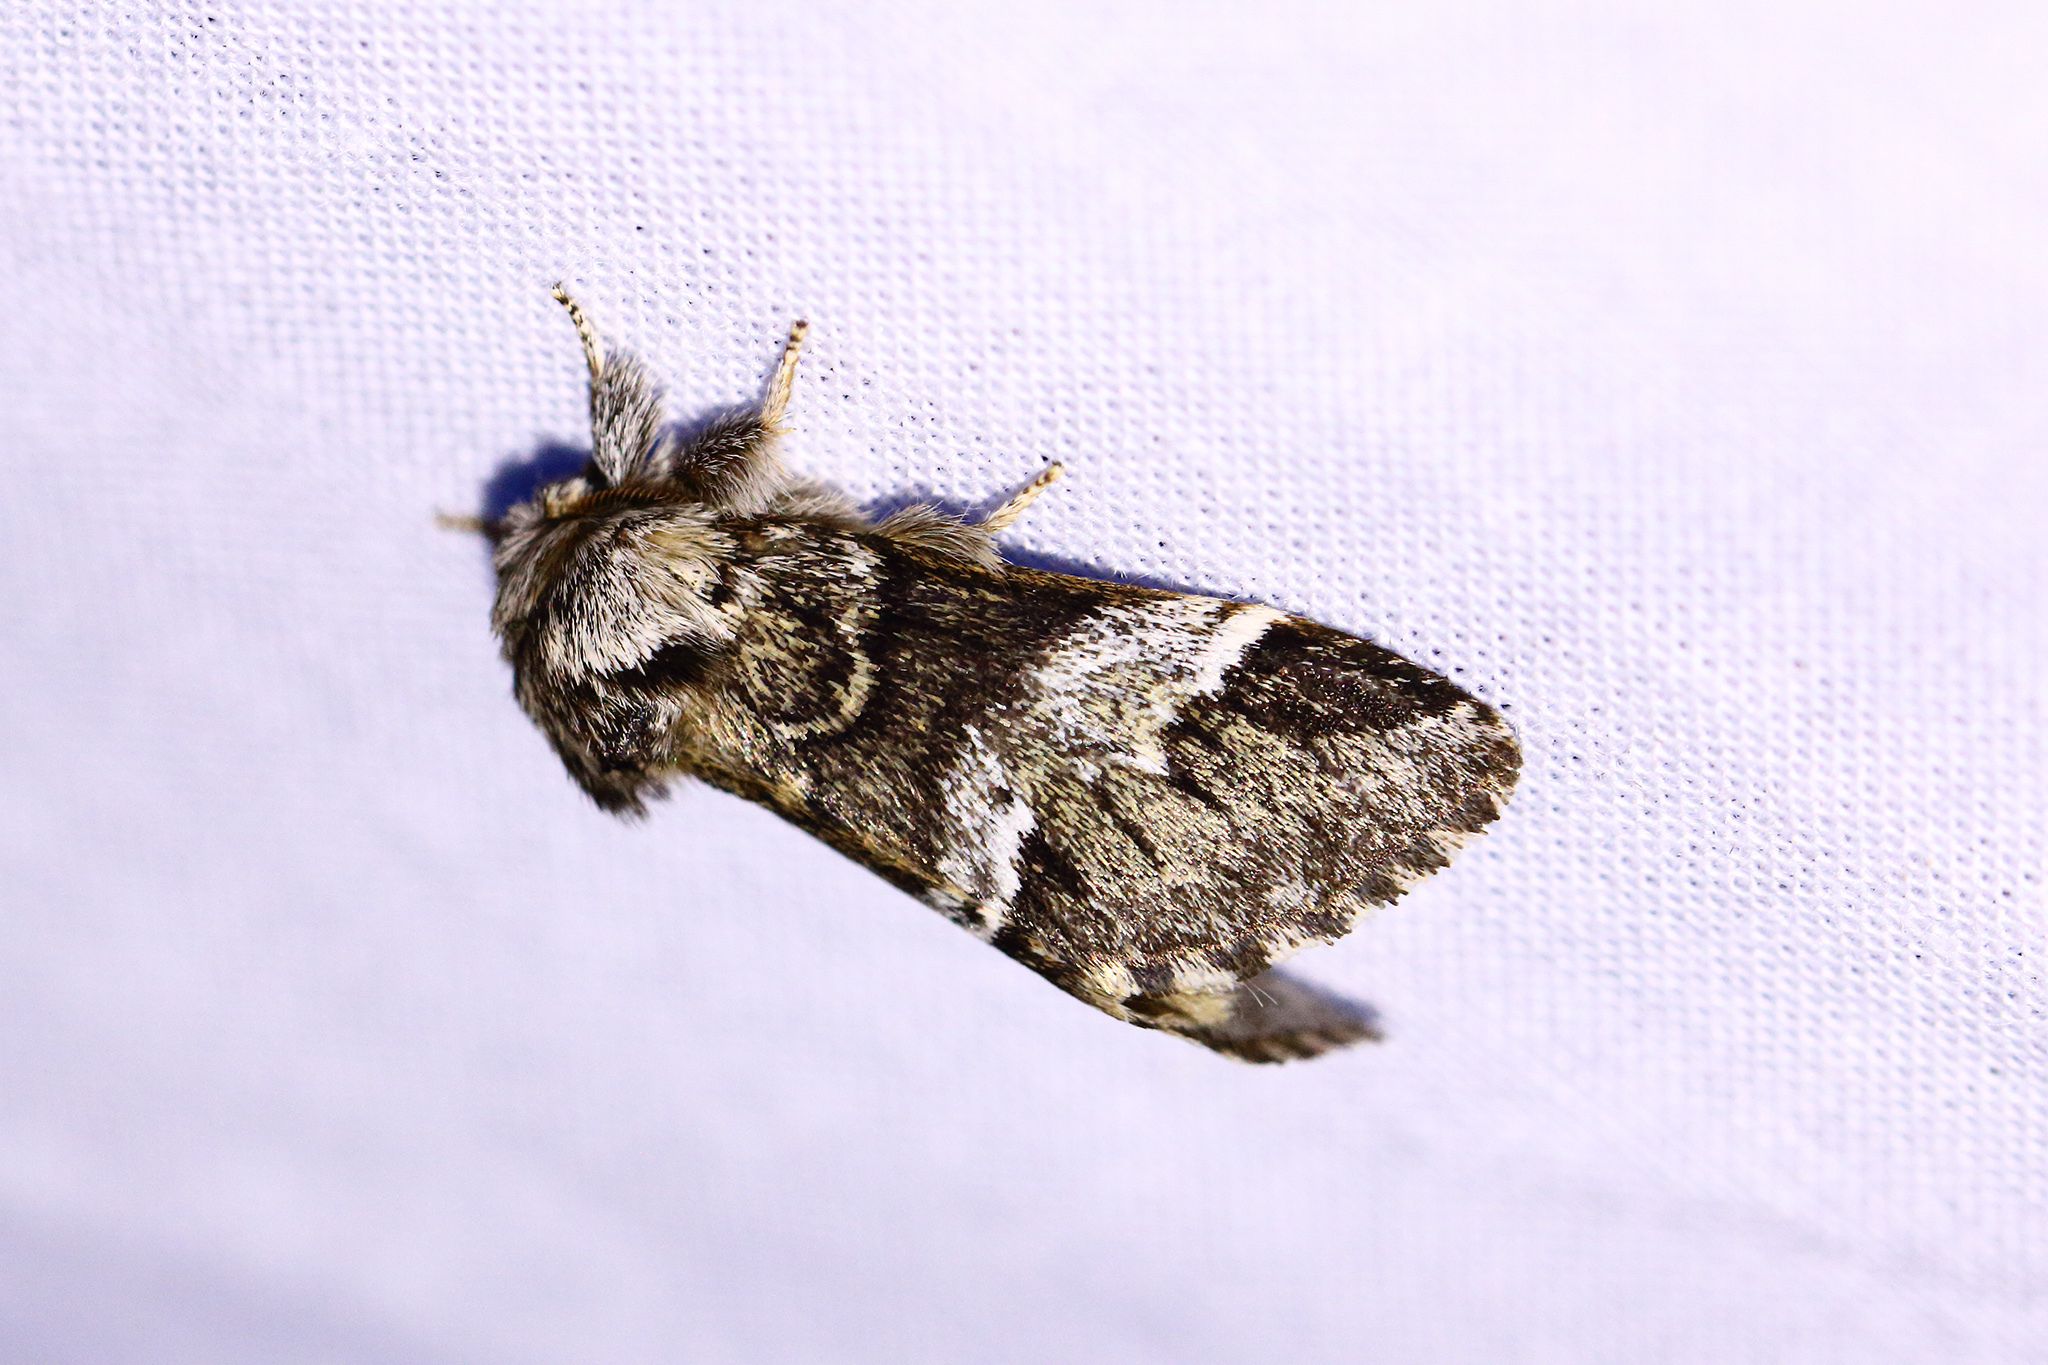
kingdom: Animalia
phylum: Arthropoda
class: Insecta
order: Lepidoptera
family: Notodontidae
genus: Drymonia
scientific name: Drymonia dodonaea
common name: Marbled brown
